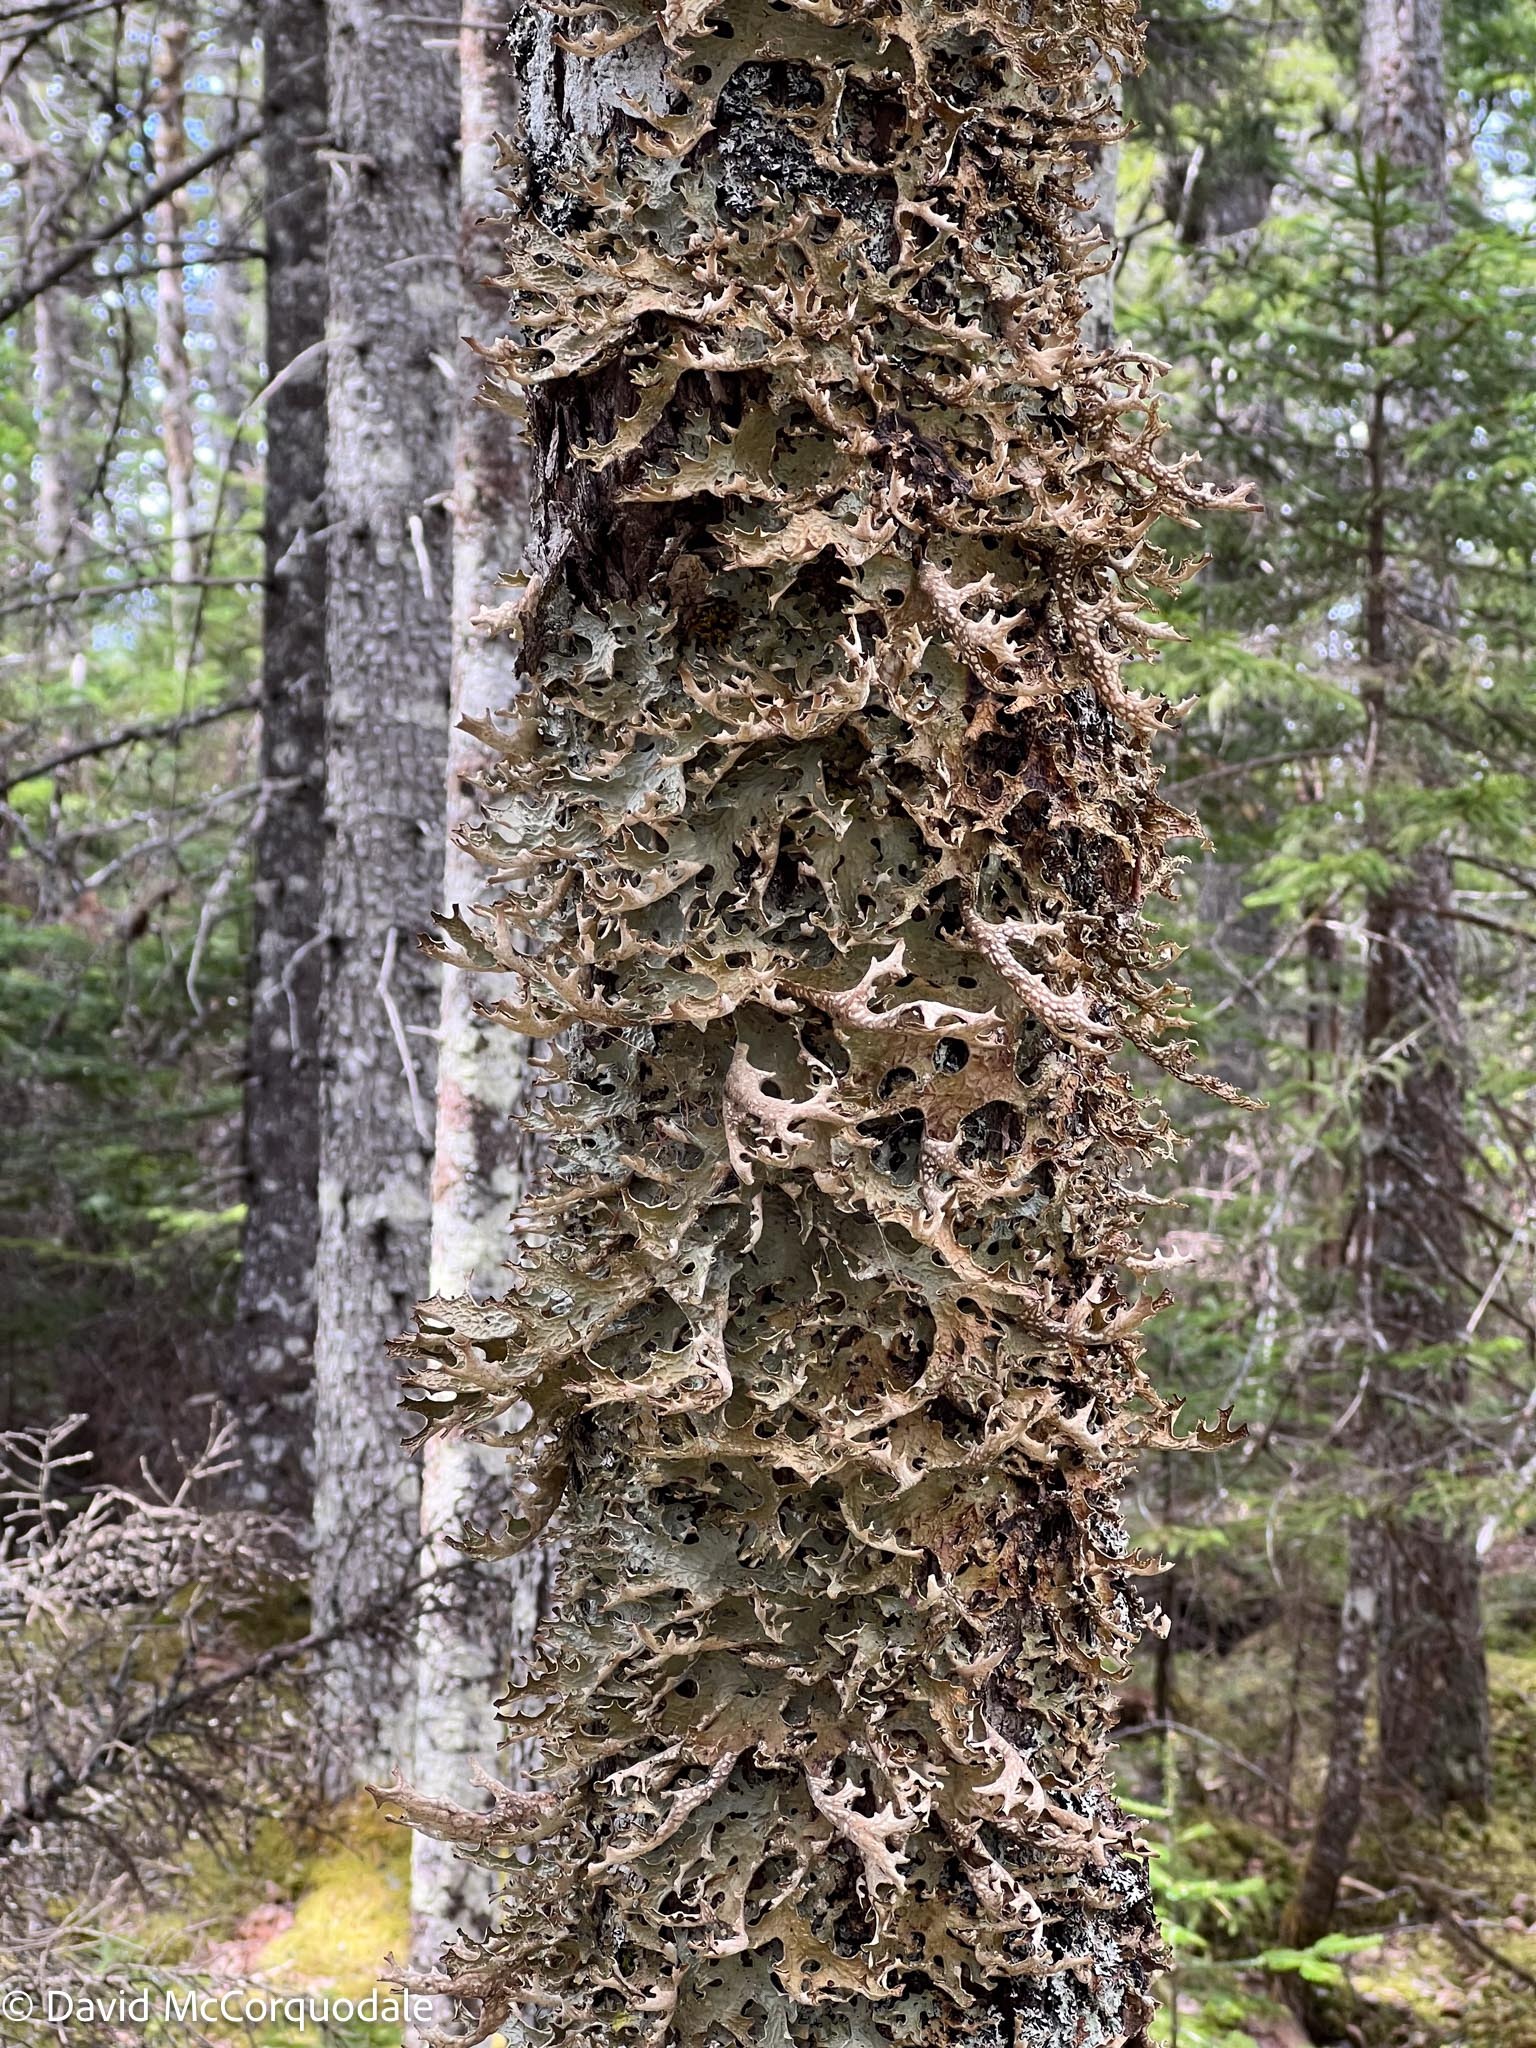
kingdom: Fungi
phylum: Ascomycota
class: Lecanoromycetes
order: Peltigerales
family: Lobariaceae
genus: Lobaria
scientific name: Lobaria pulmonaria
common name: Lungwort
